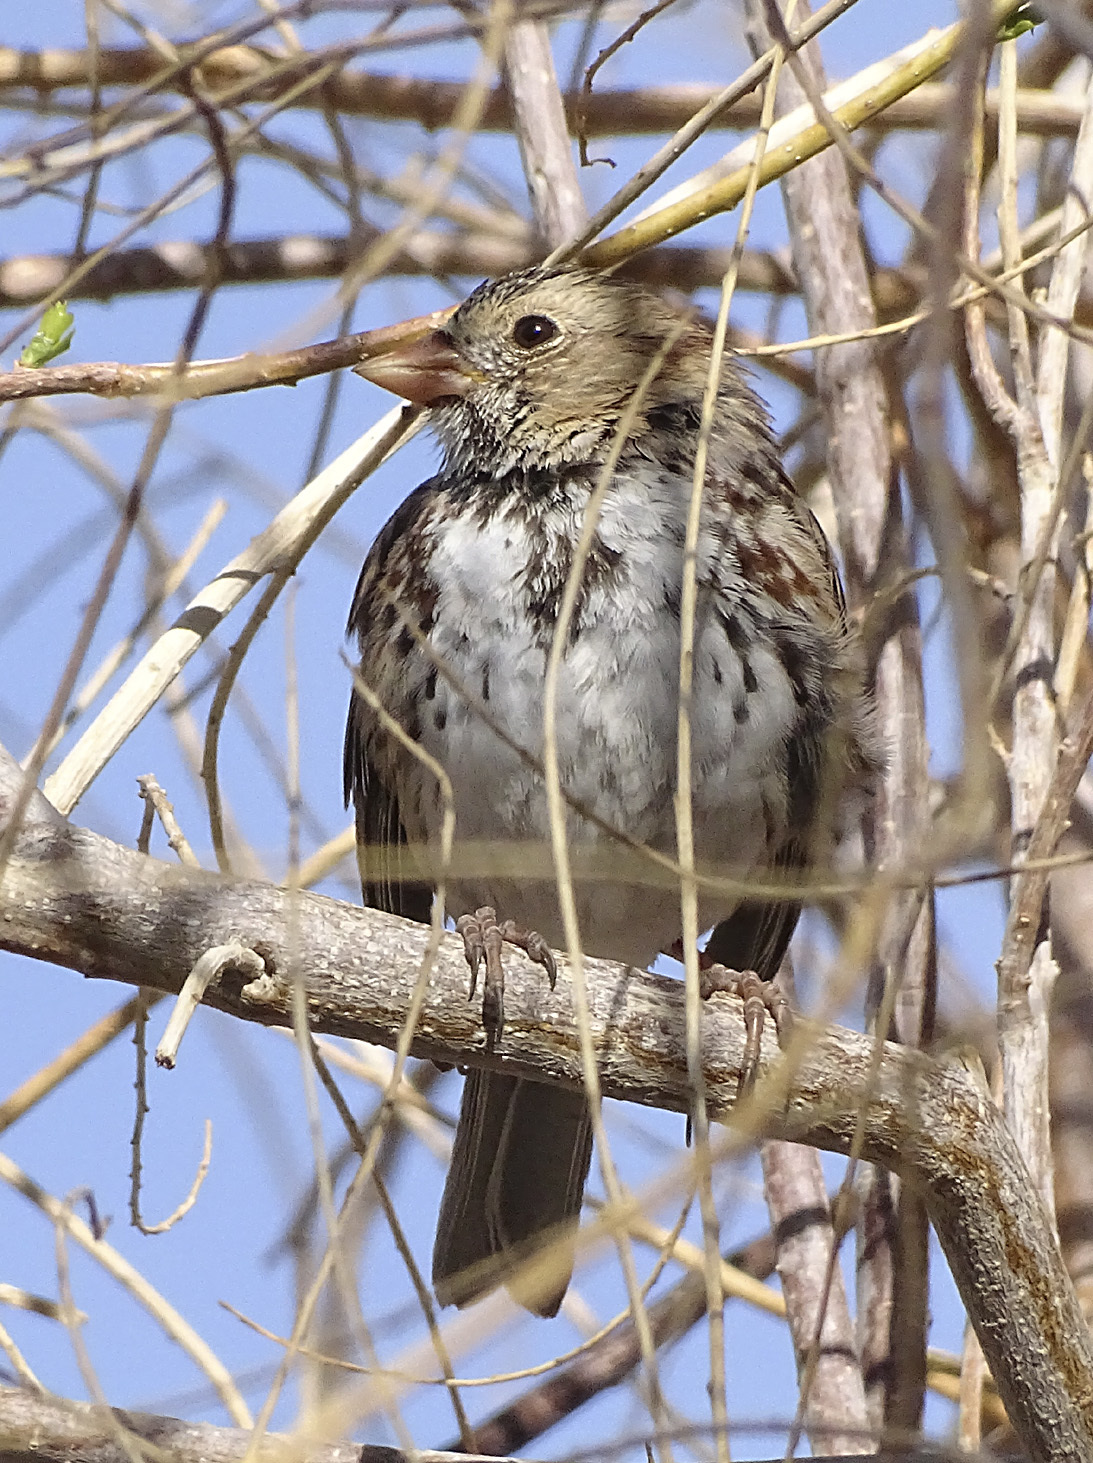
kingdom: Animalia
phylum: Chordata
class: Aves
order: Passeriformes
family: Passerellidae
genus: Zonotrichia
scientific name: Zonotrichia querula
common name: Harris's sparrow
